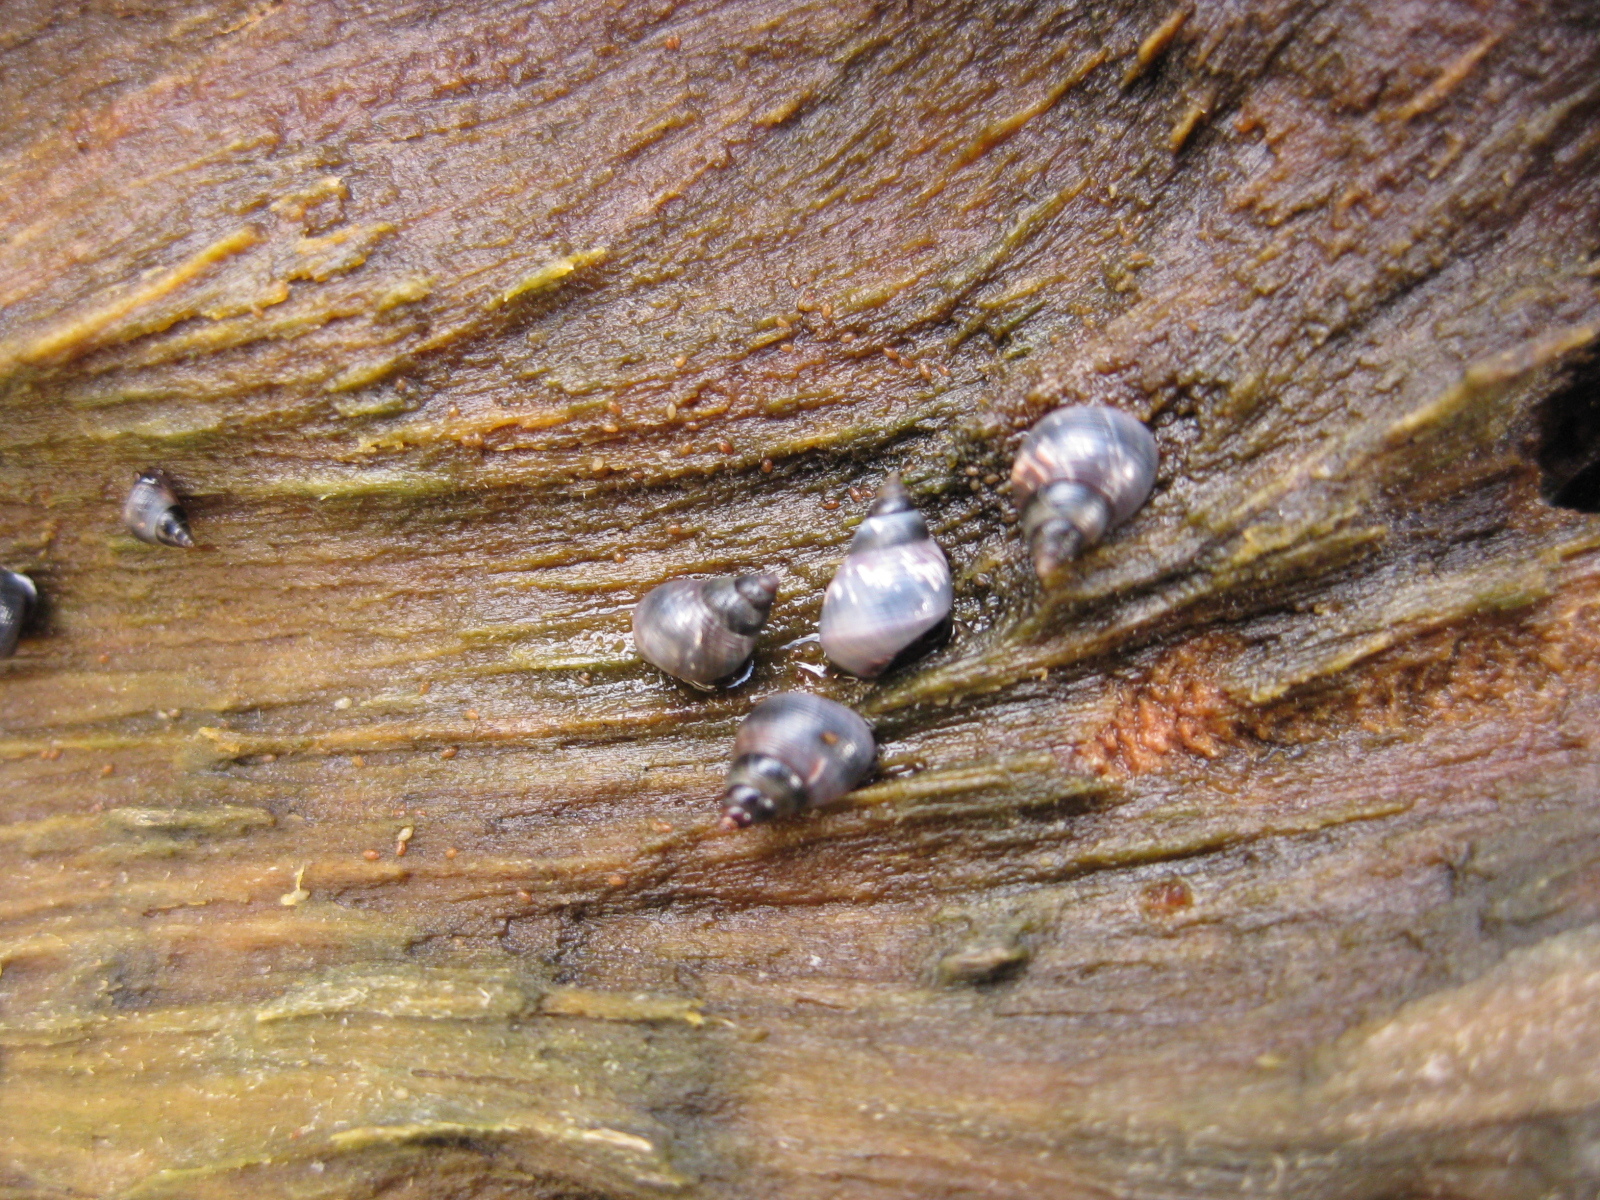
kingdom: Animalia
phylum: Mollusca
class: Gastropoda
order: Littorinimorpha
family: Littorinidae
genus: Austrolittorina
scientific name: Austrolittorina antipodum
